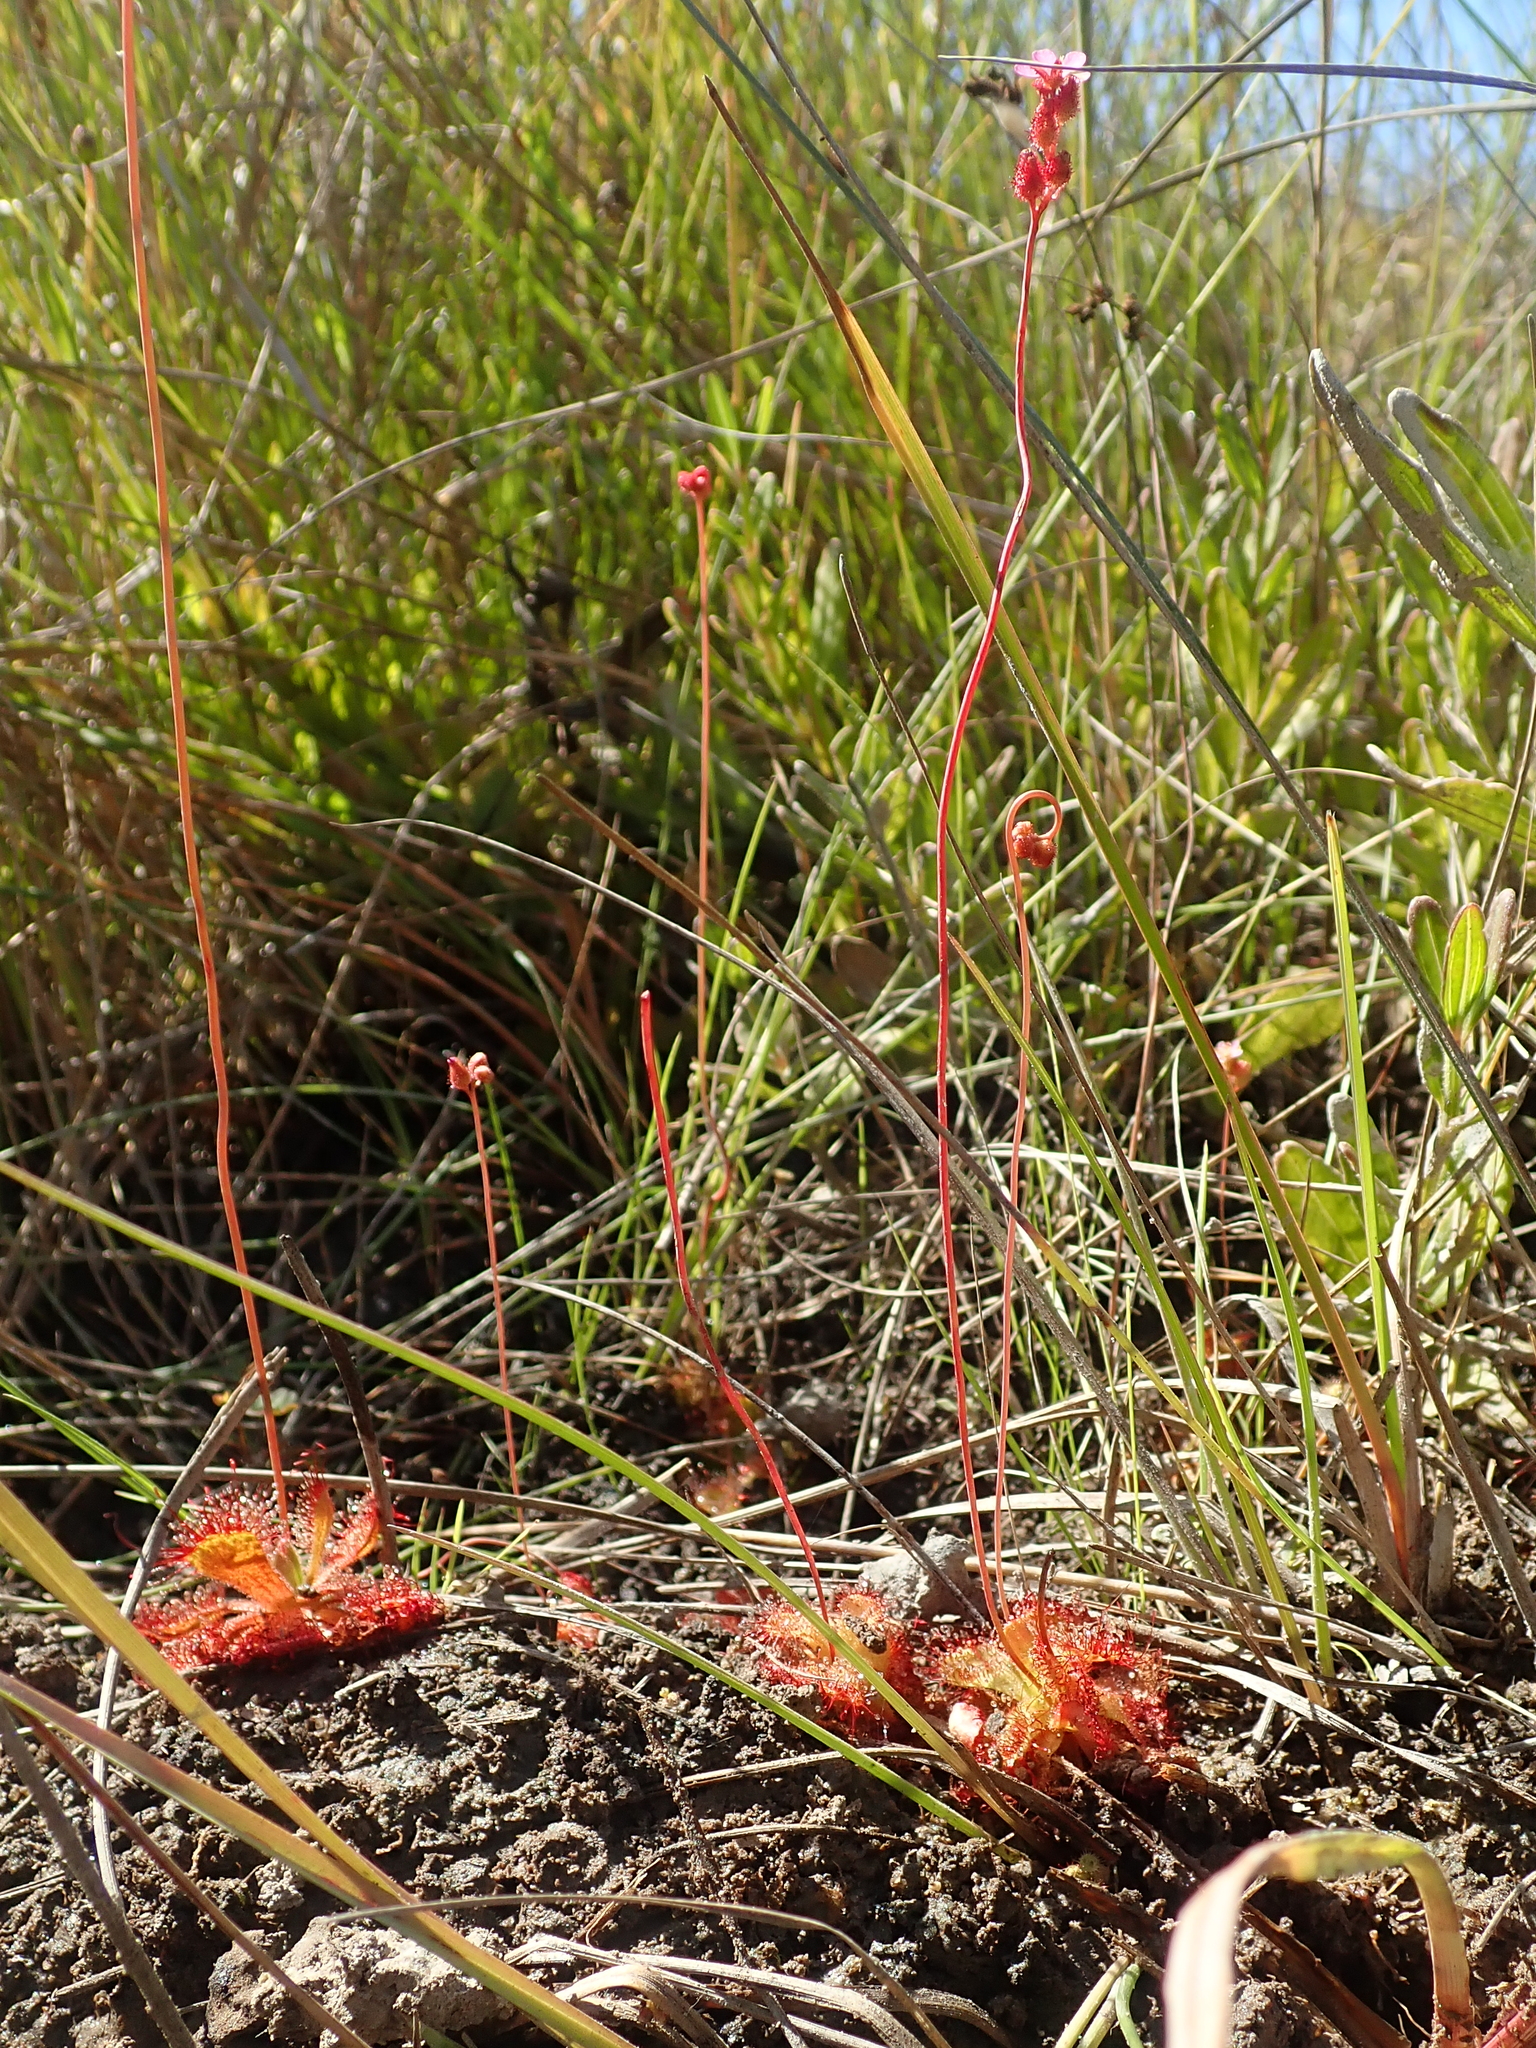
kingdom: Plantae
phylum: Tracheophyta
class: Magnoliopsida
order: Caryophyllales
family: Droseraceae
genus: Drosera
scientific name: Drosera sessilifolia
